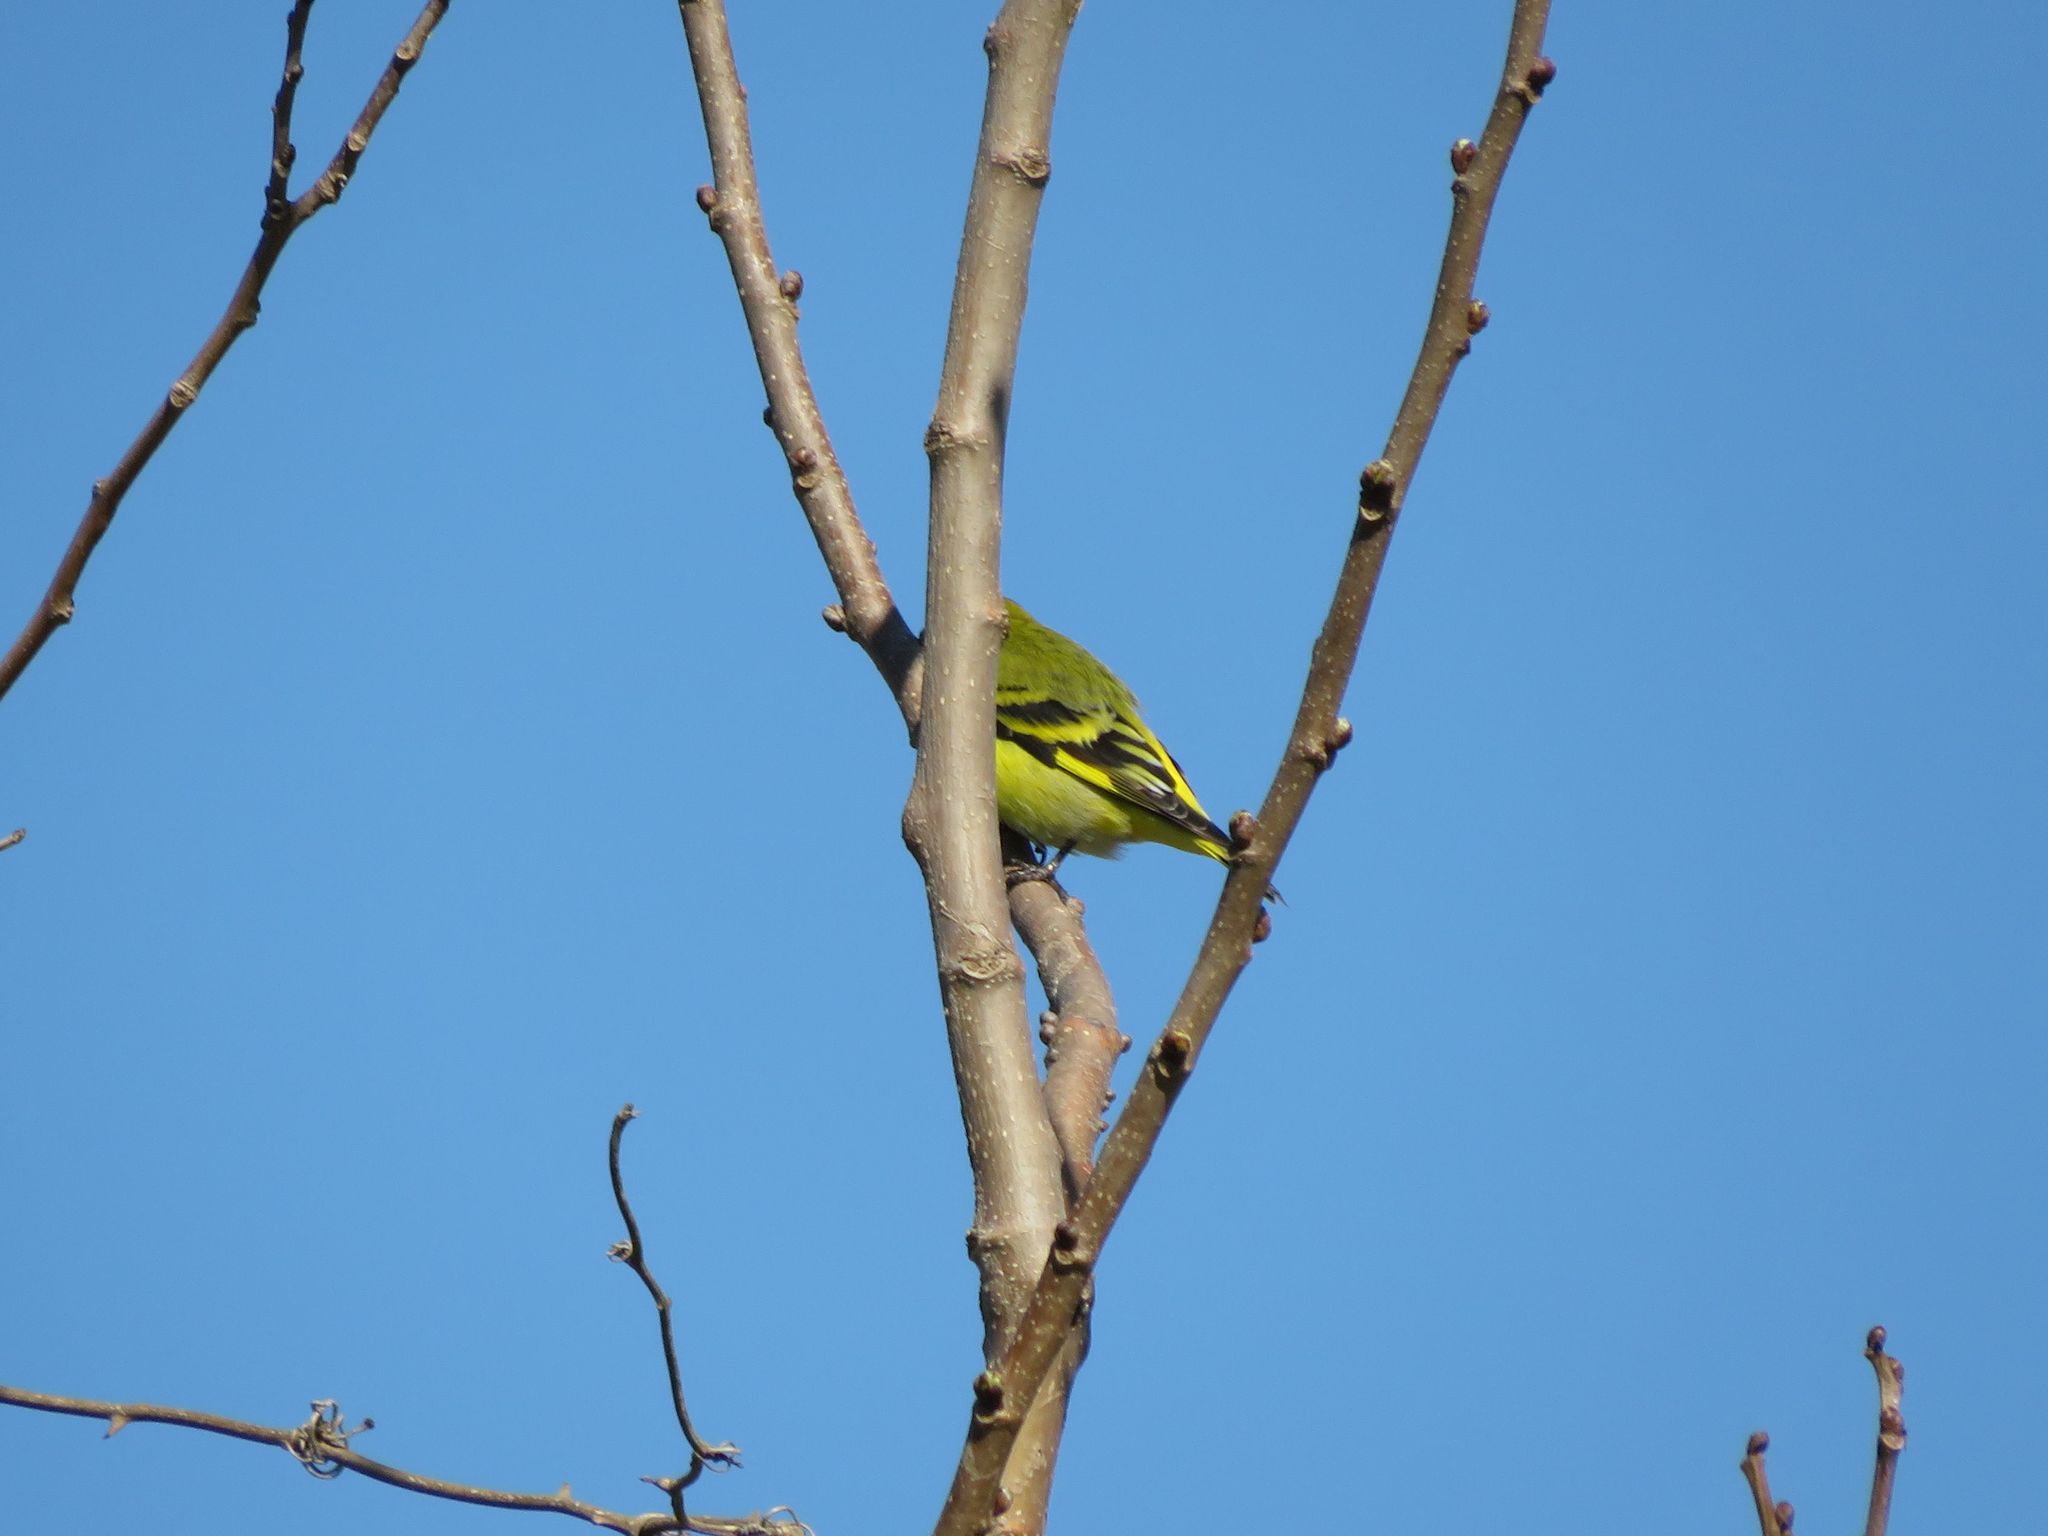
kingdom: Animalia
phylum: Chordata
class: Aves
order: Passeriformes
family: Fringillidae
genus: Spinus
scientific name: Spinus magellanicus
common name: Hooded siskin
